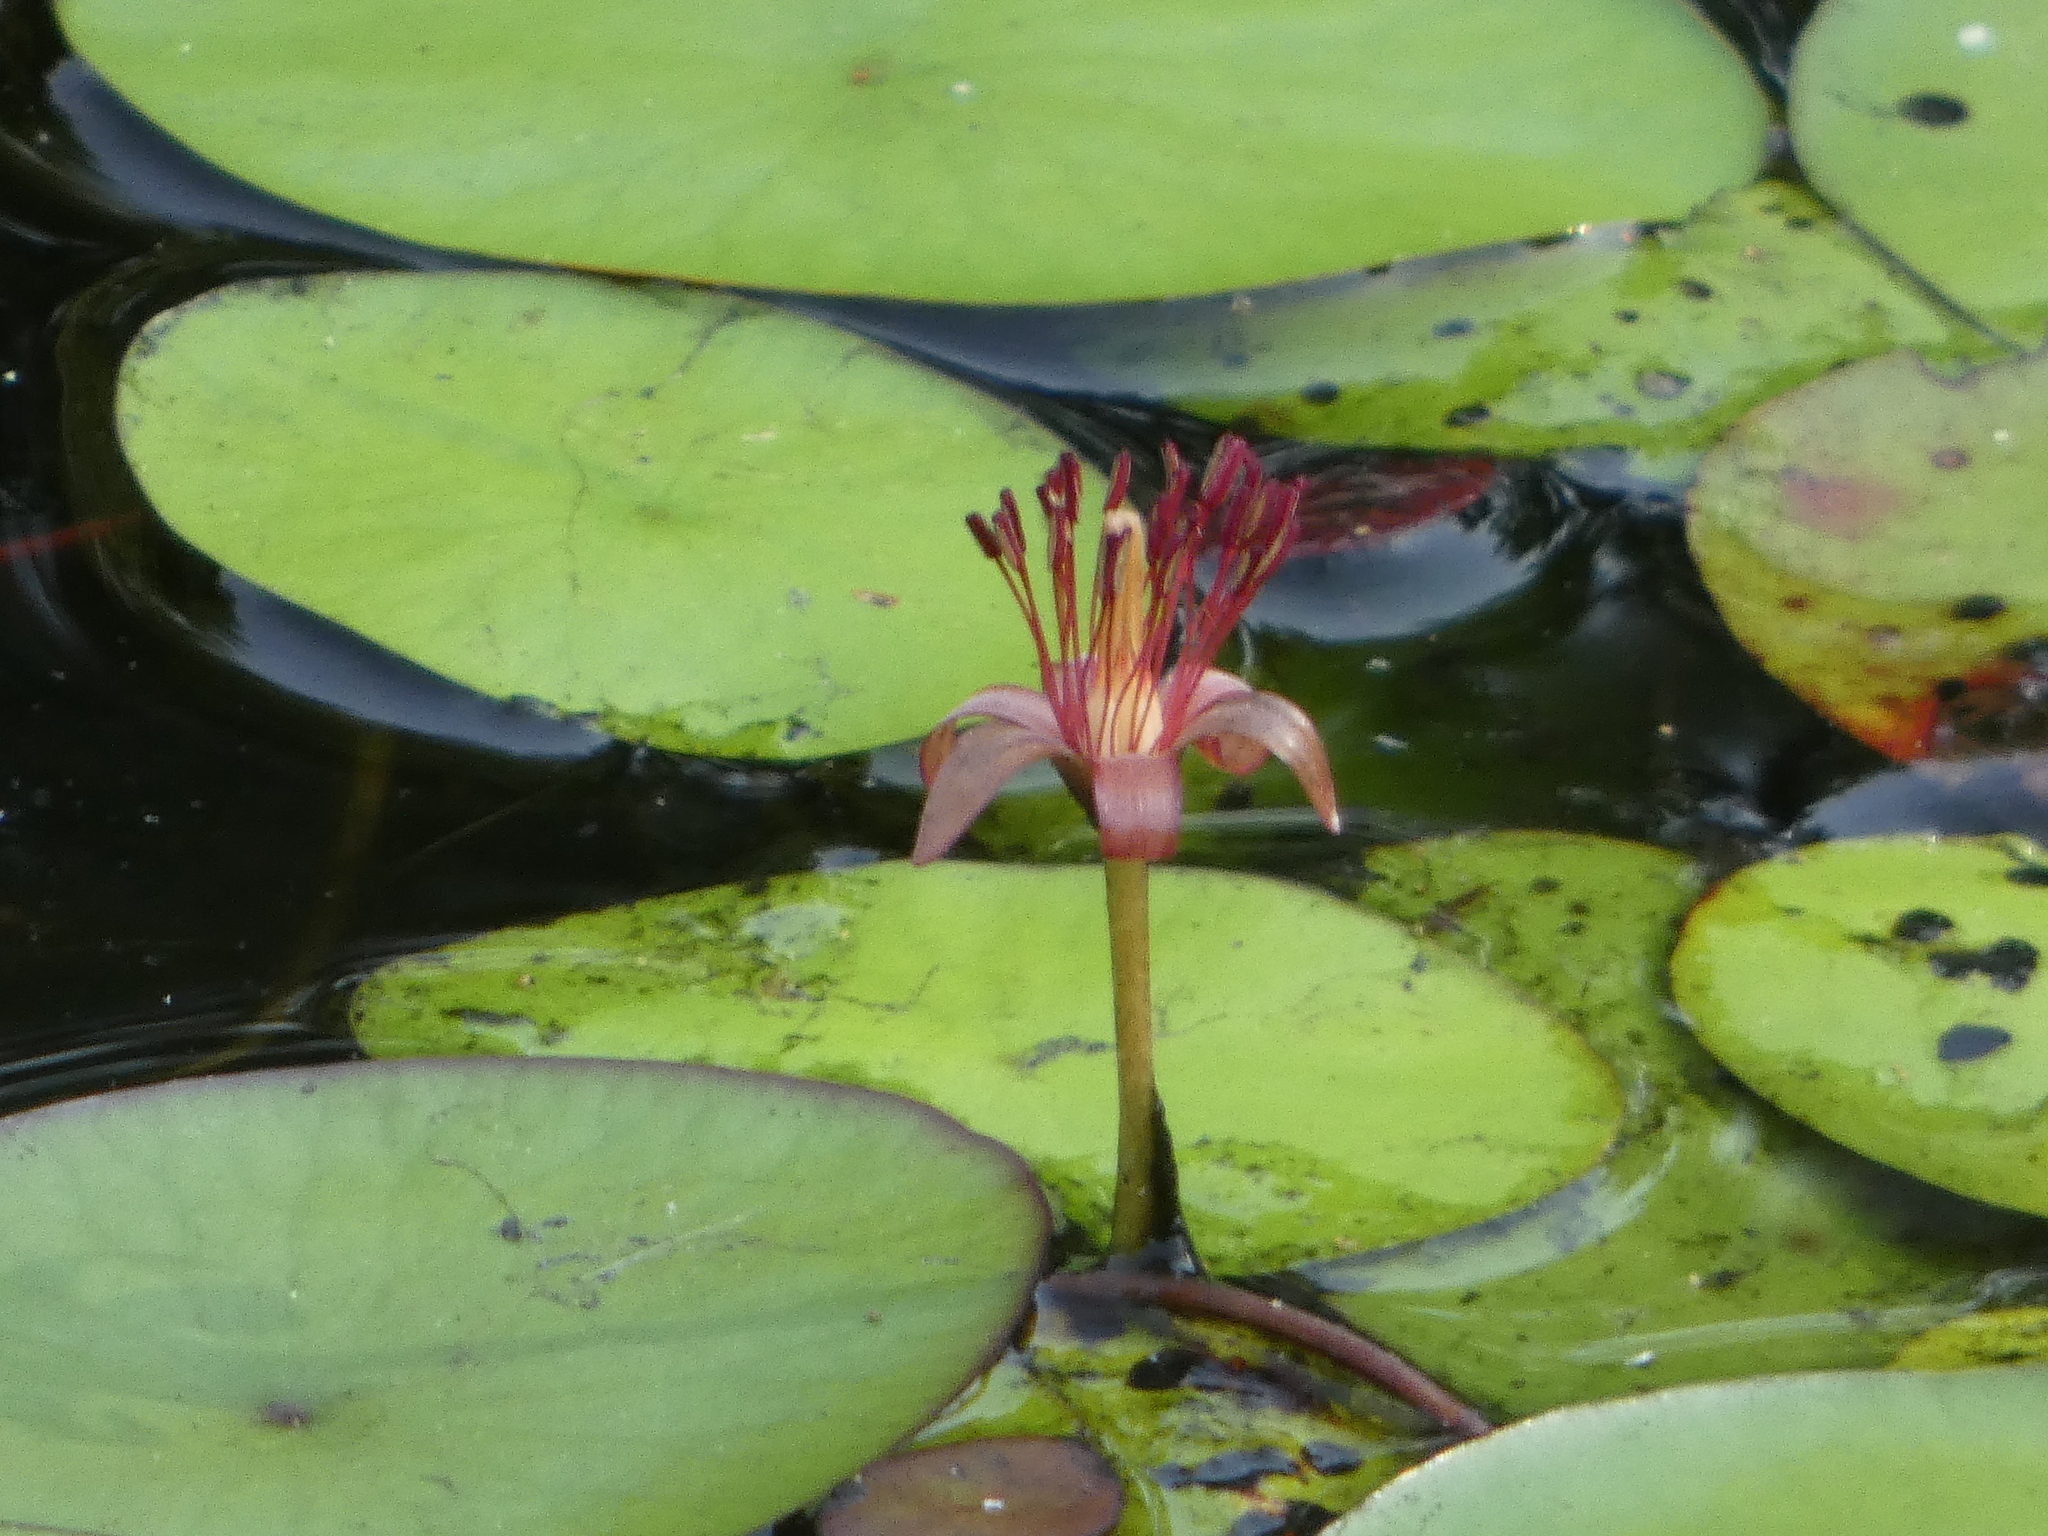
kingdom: Plantae
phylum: Tracheophyta
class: Magnoliopsida
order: Nymphaeales
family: Cabombaceae
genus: Brasenia
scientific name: Brasenia schreberi
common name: Water-shield
